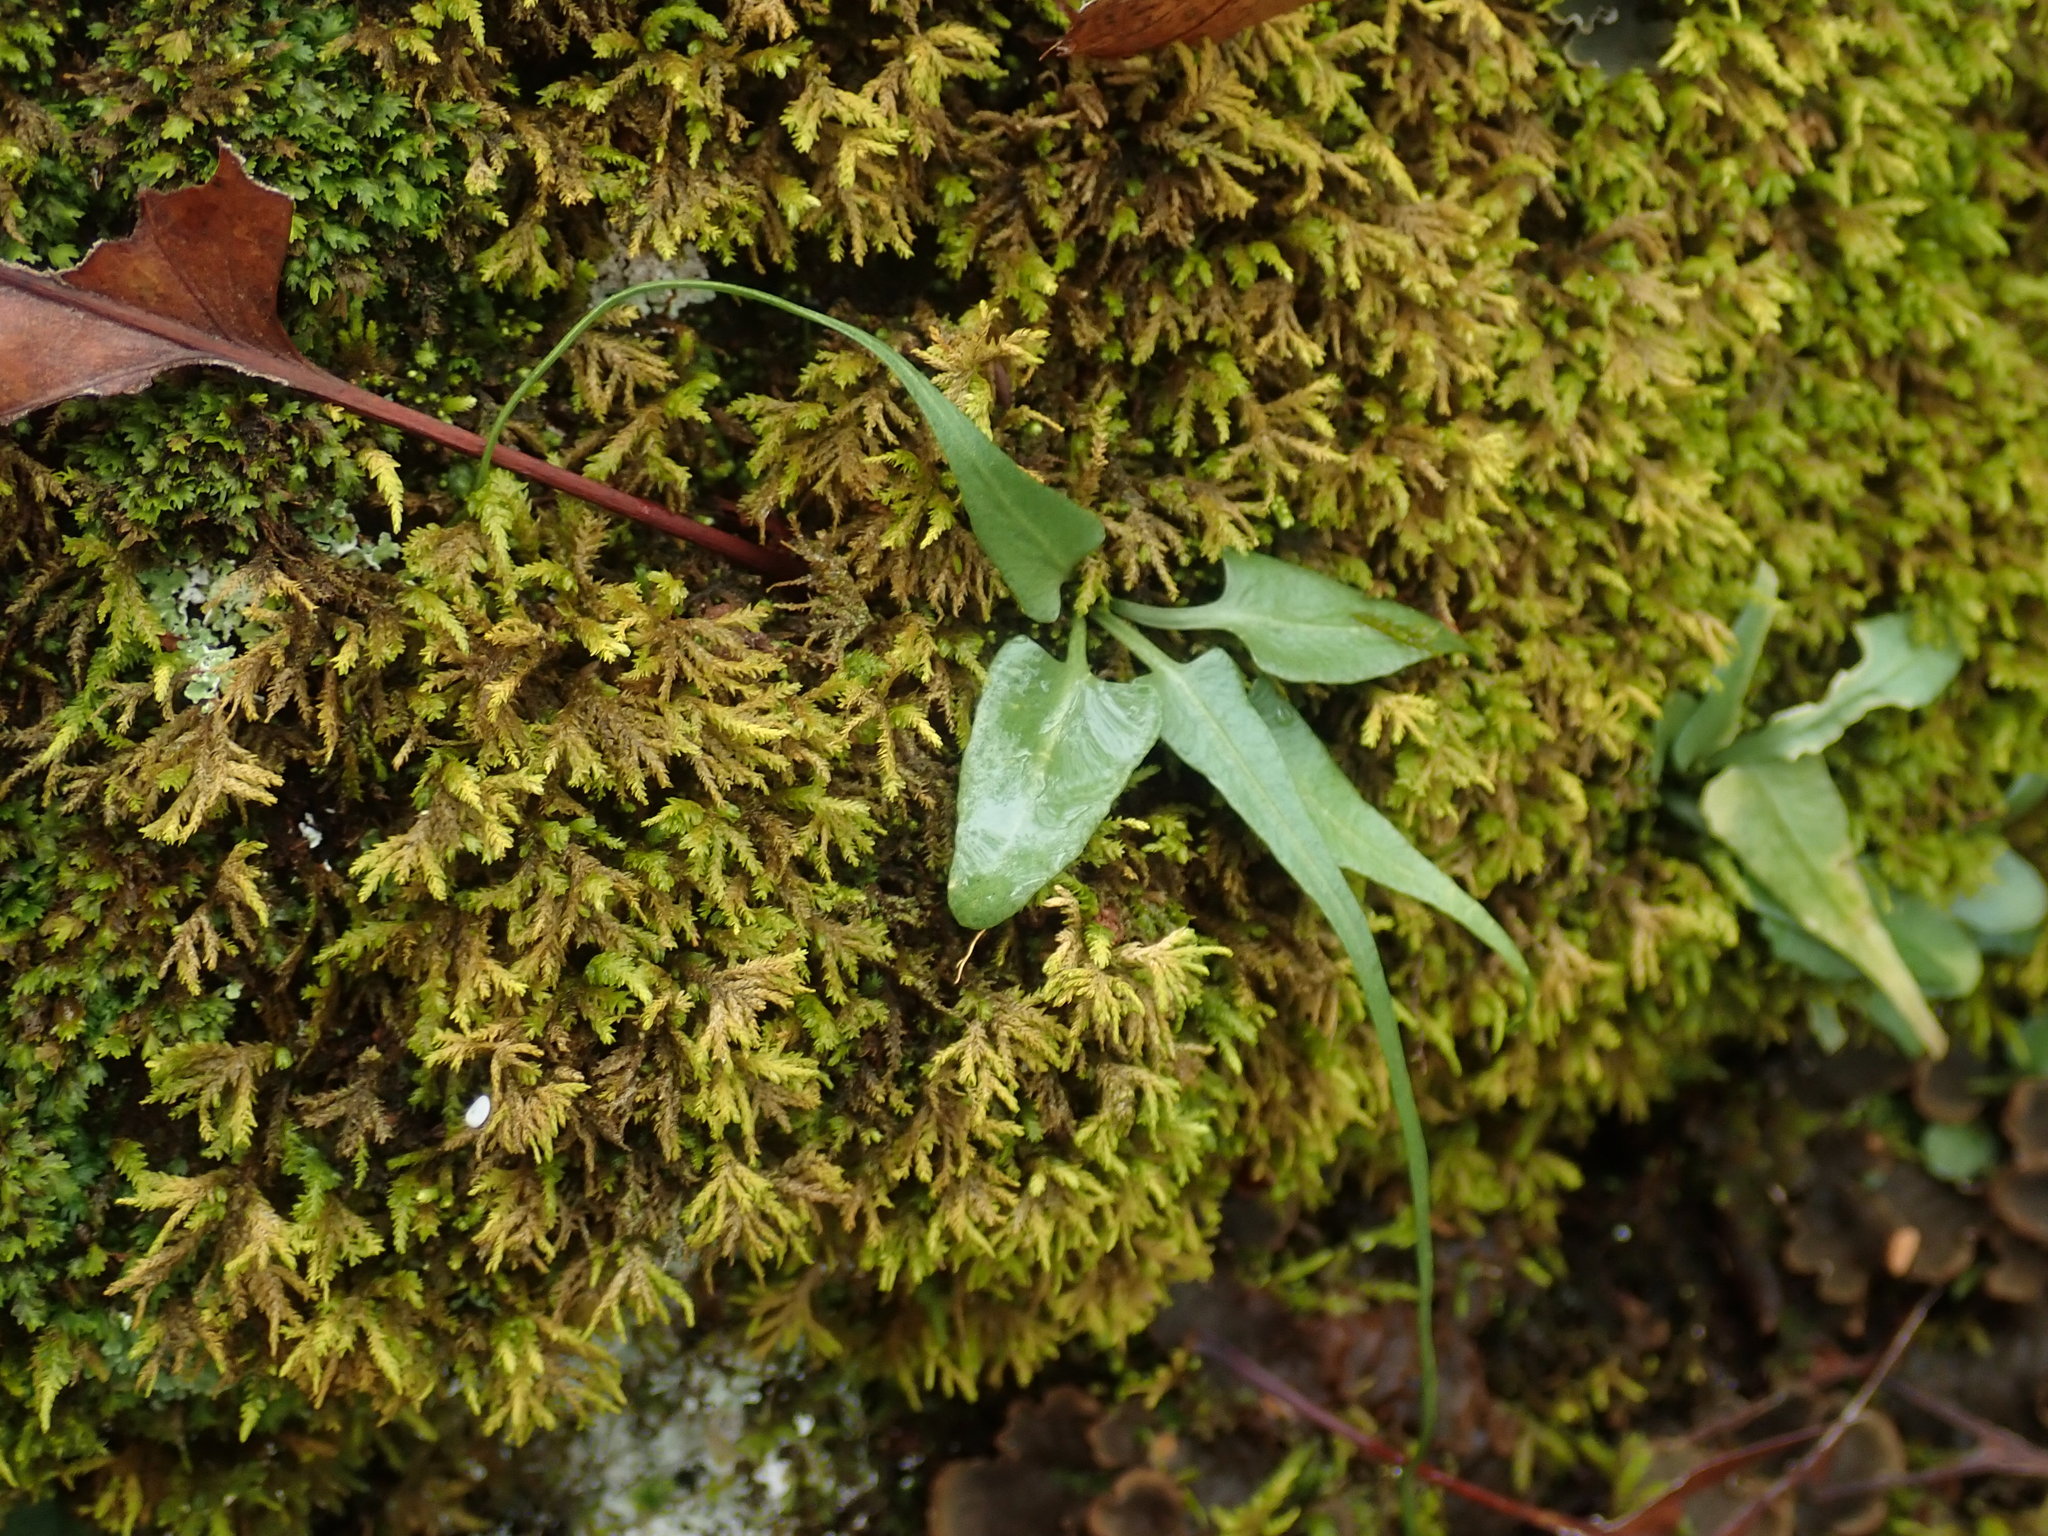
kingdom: Plantae
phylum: Tracheophyta
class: Polypodiopsida
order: Polypodiales
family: Aspleniaceae
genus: Asplenium
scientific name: Asplenium rhizophyllum
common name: Walking fern
